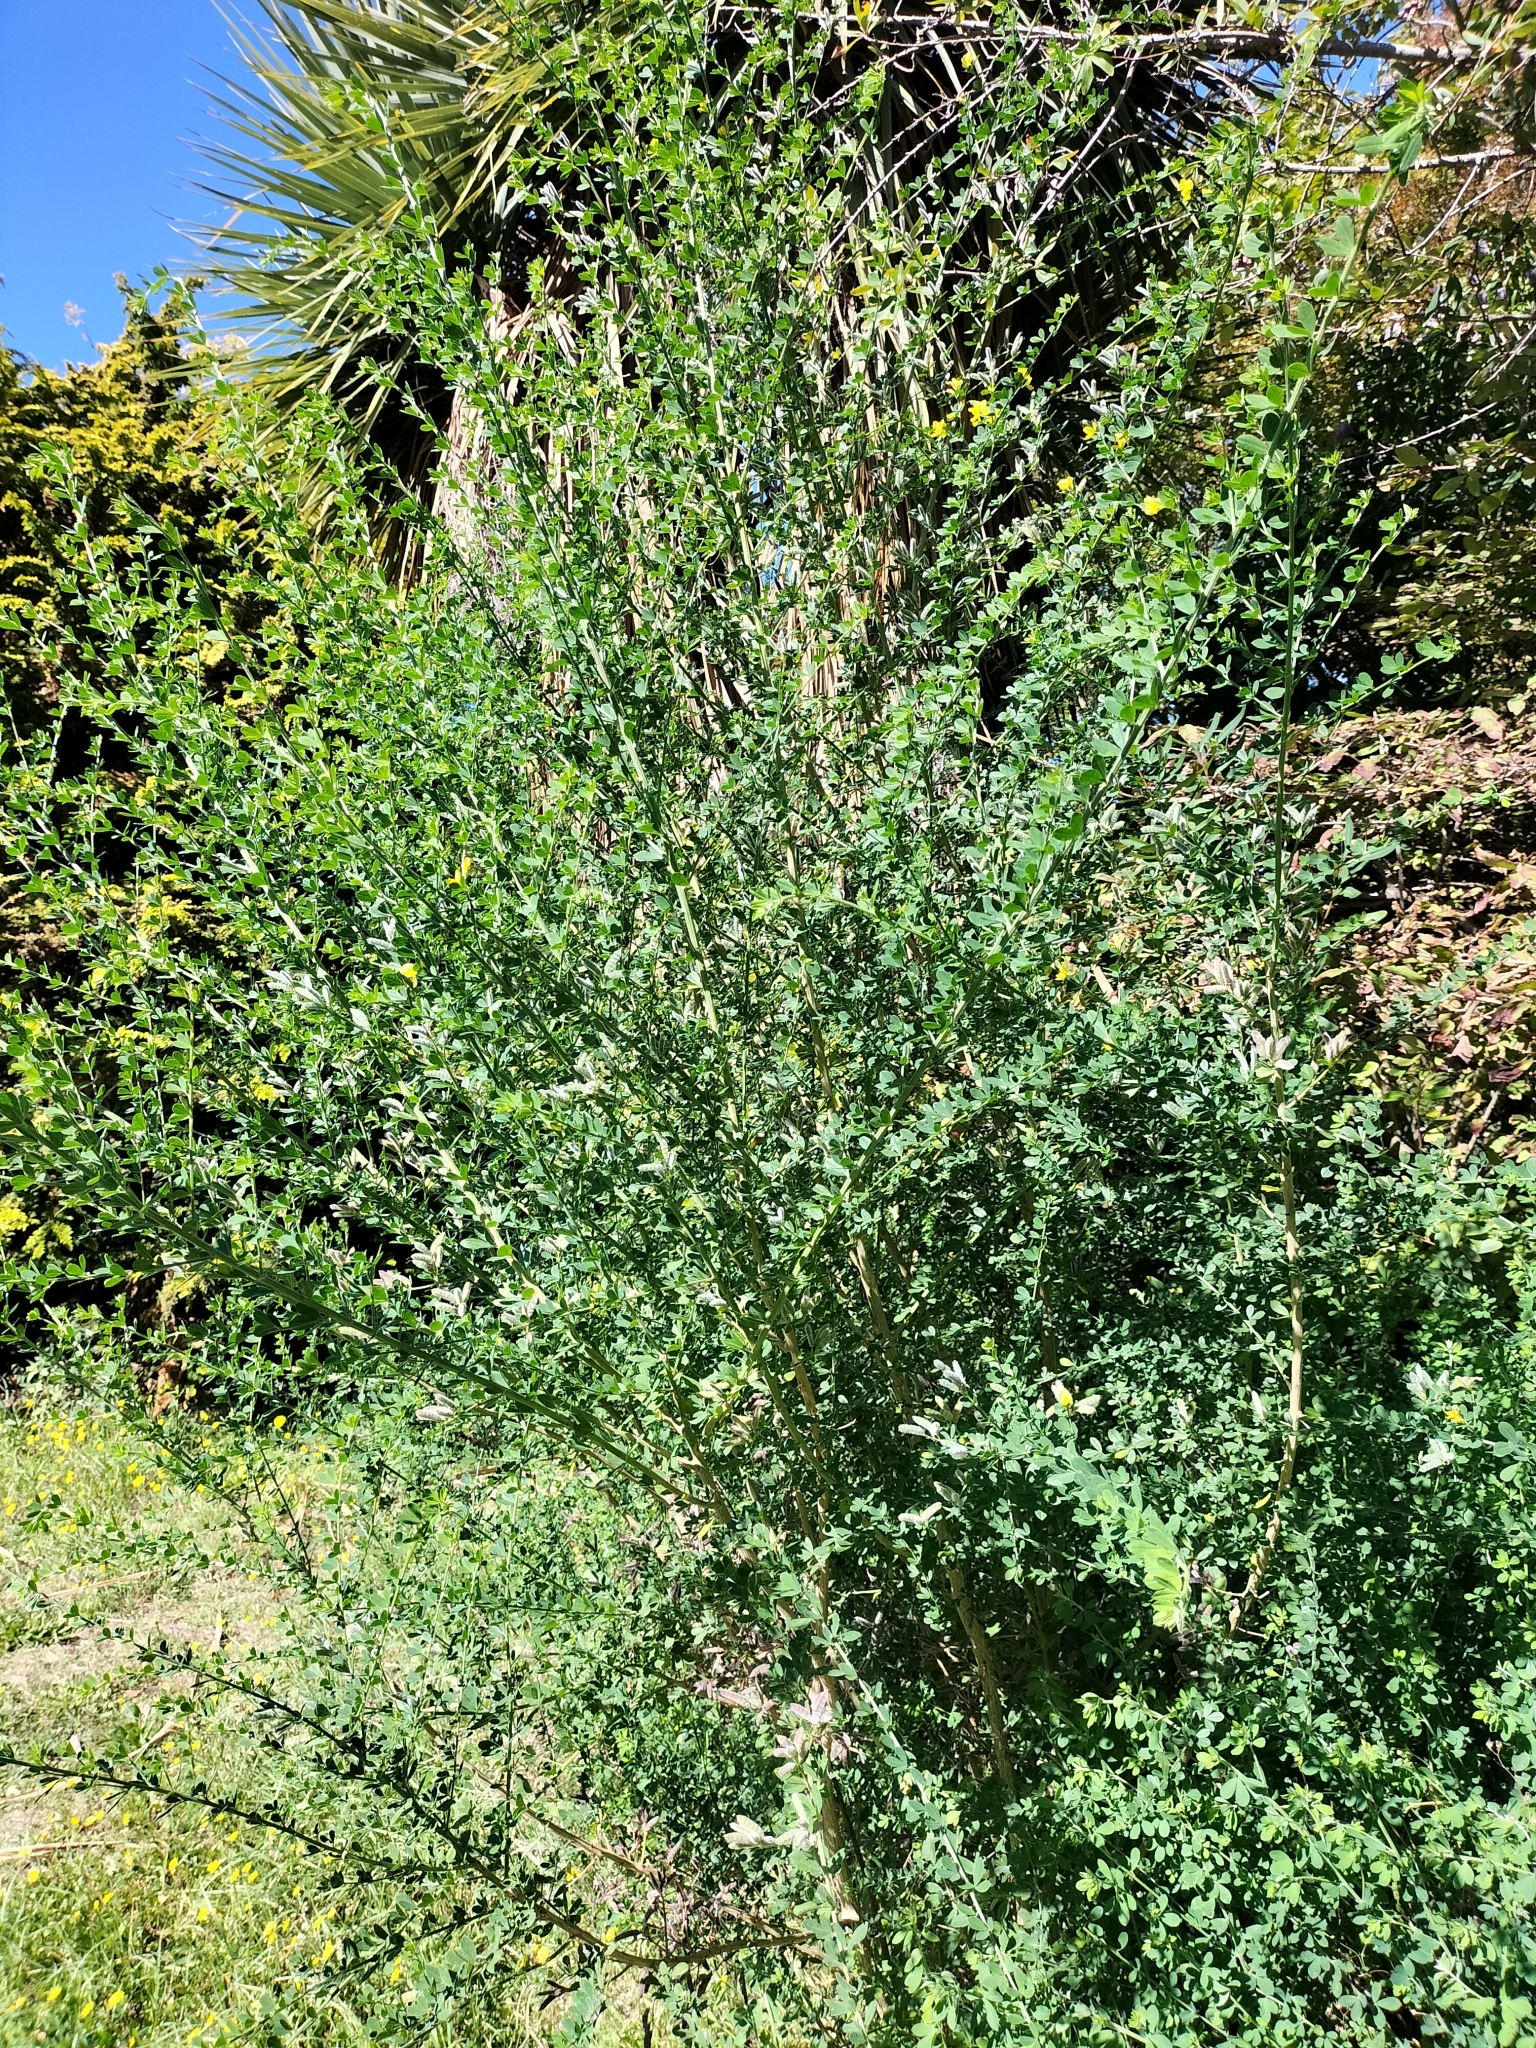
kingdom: Plantae
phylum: Tracheophyta
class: Magnoliopsida
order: Fabales
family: Fabaceae
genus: Genista
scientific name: Genista monspessulana
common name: Montpellier broom
